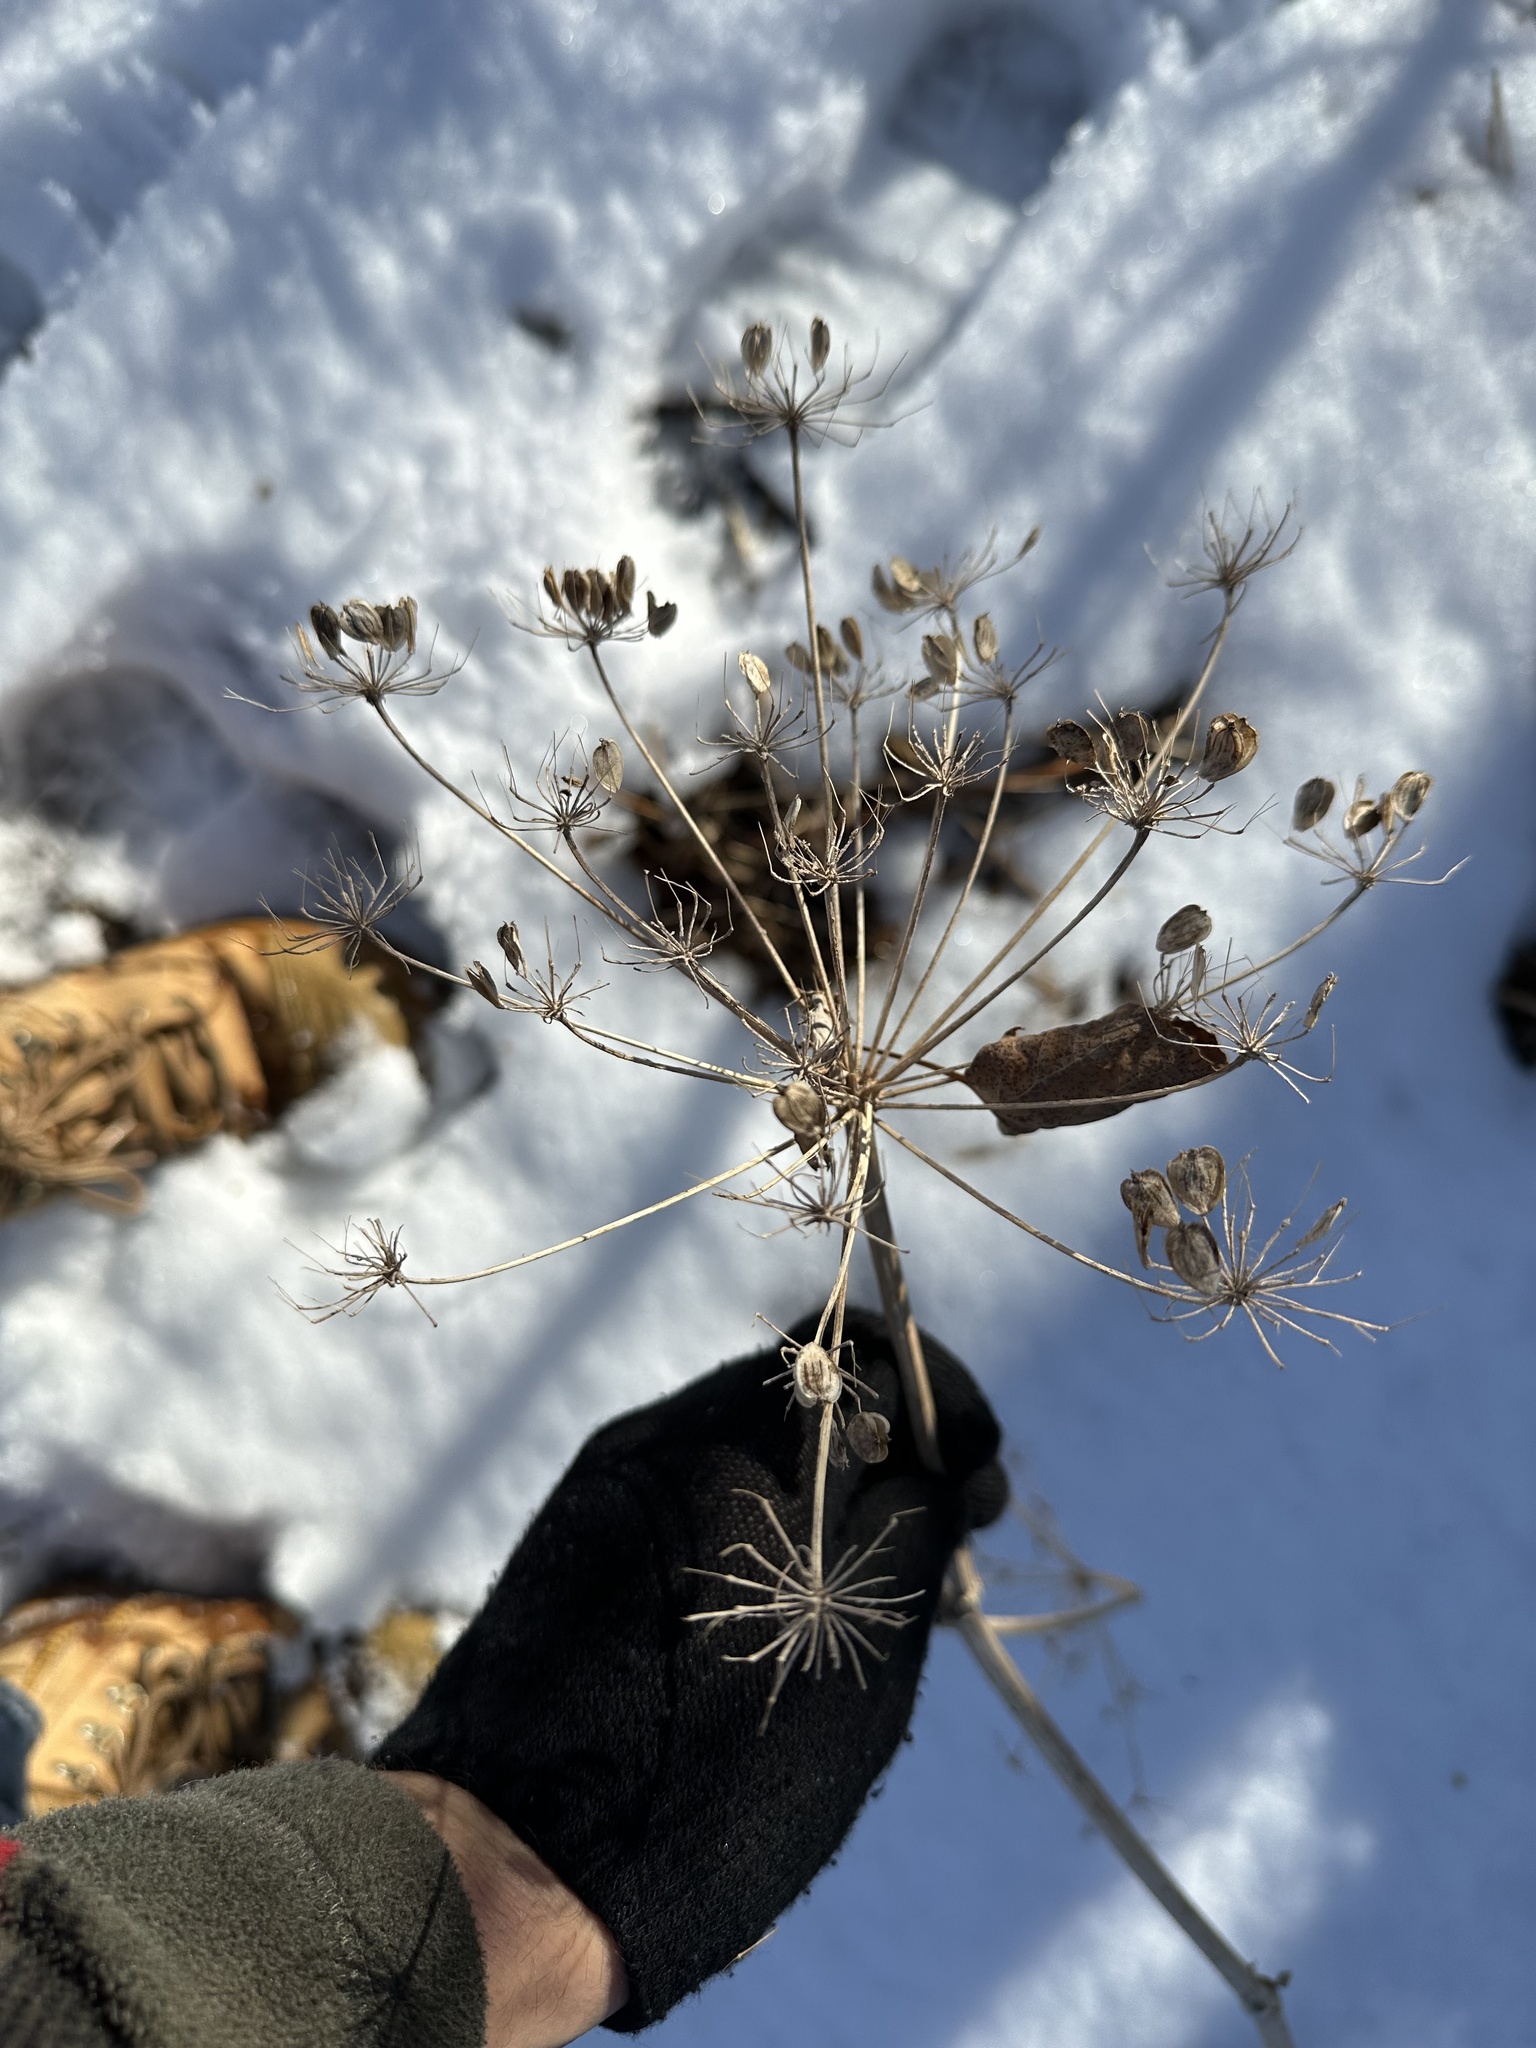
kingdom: Plantae
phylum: Tracheophyta
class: Magnoliopsida
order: Apiales
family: Apiaceae
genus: Heracleum
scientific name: Heracleum maximum
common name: American cow parsnip
